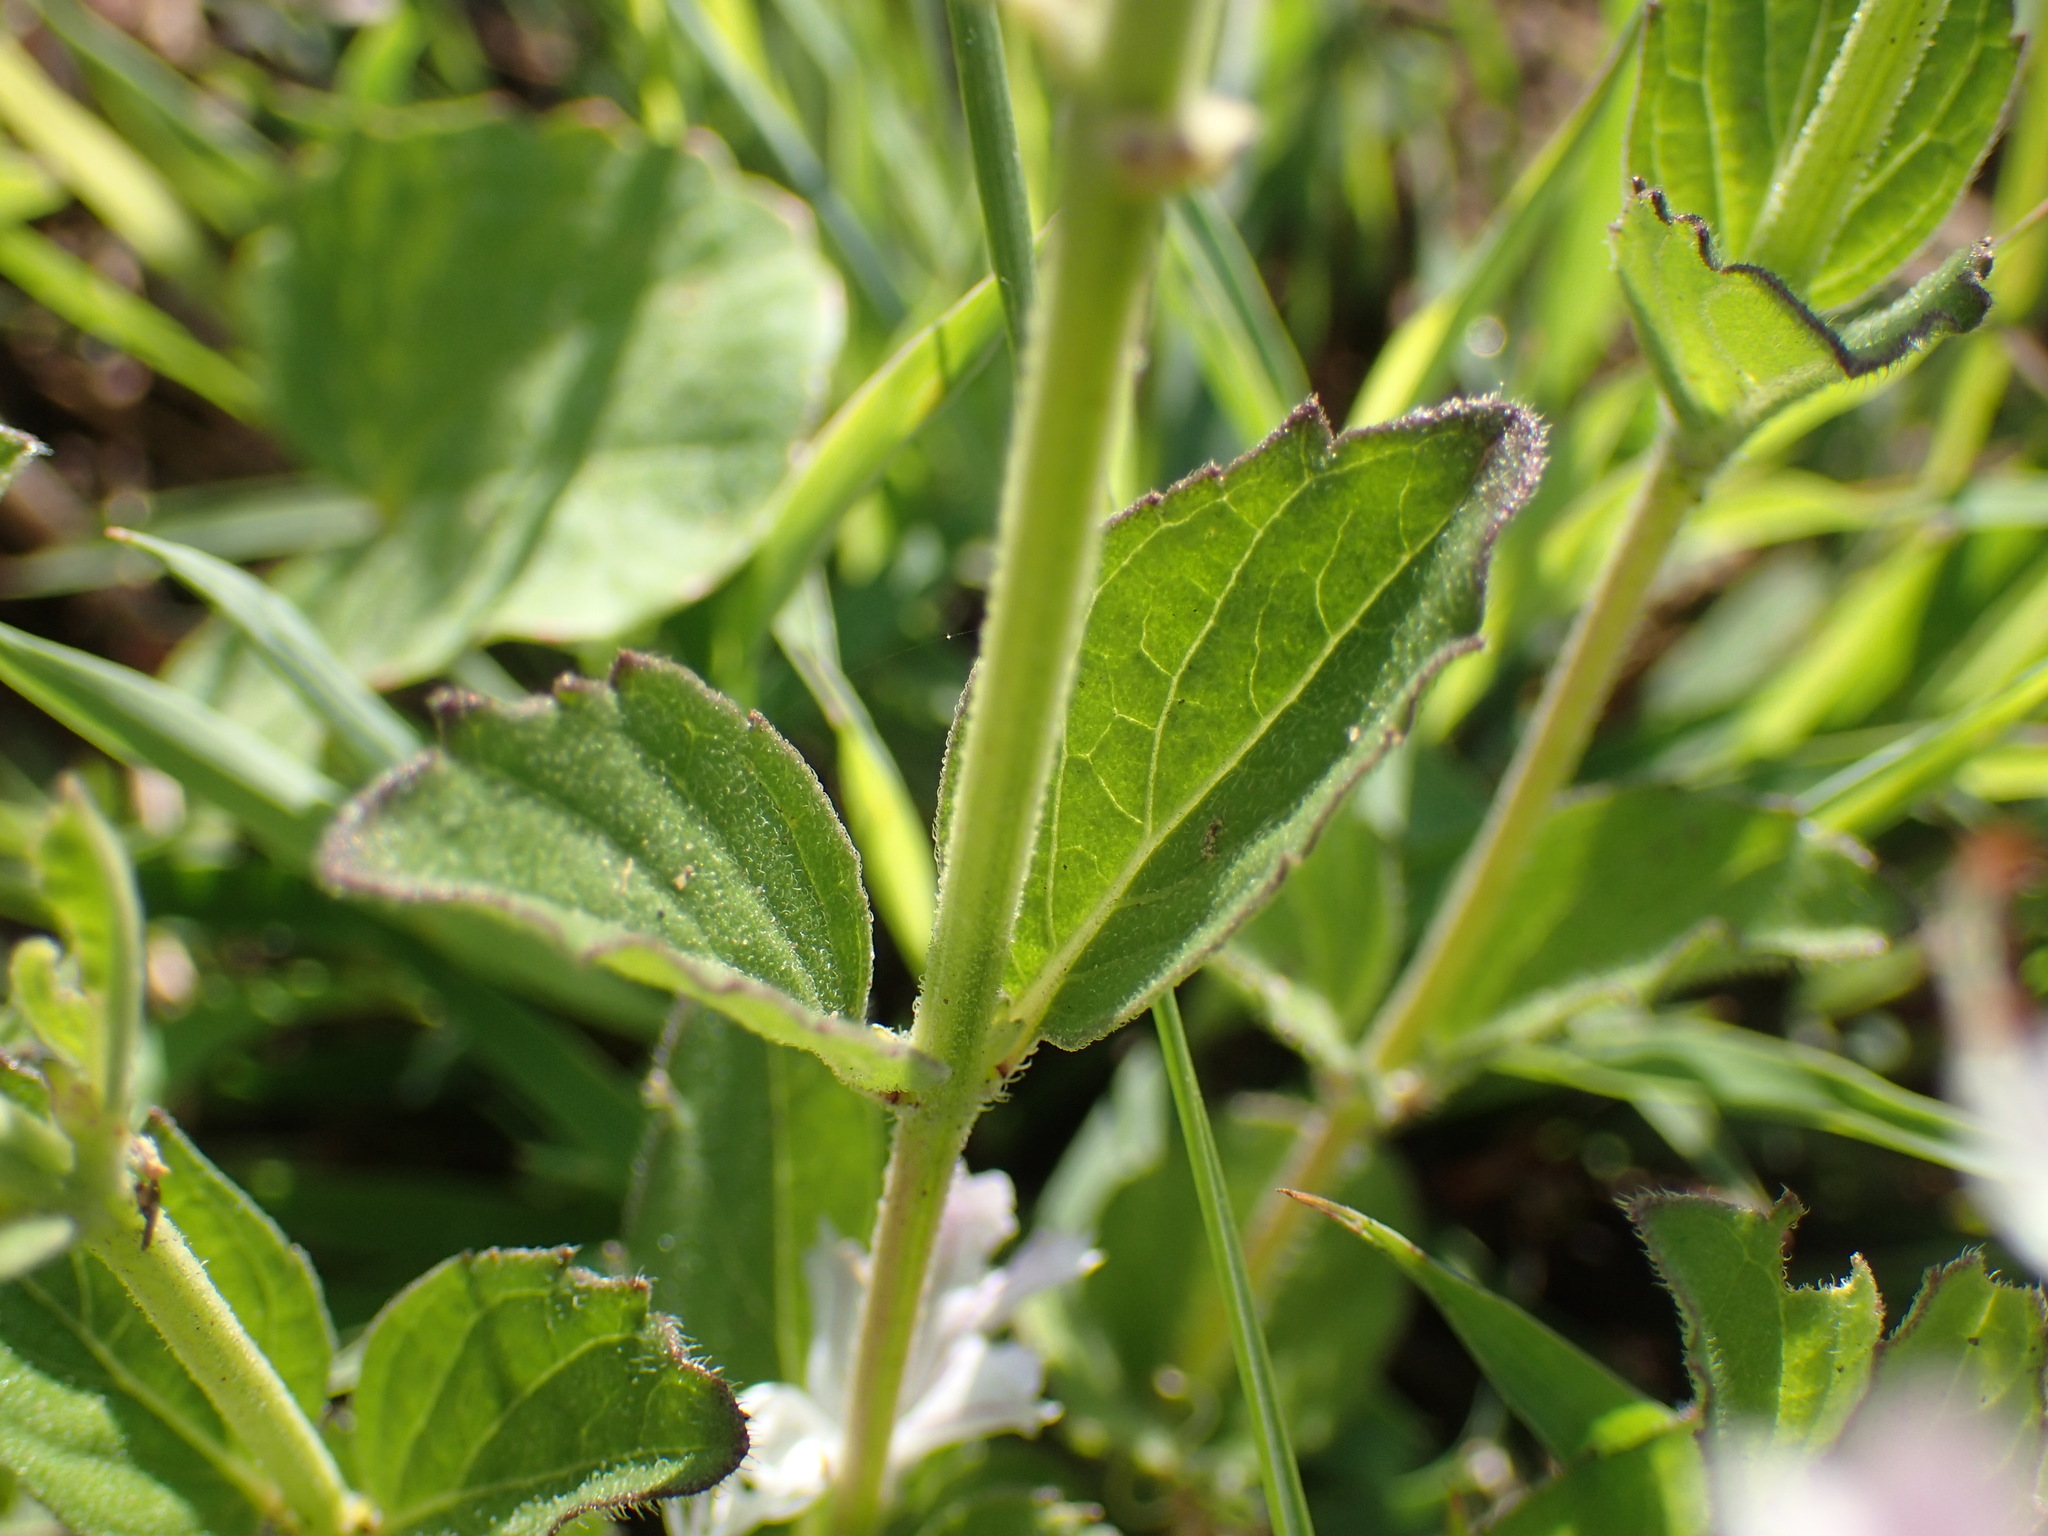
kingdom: Plantae
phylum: Tracheophyta
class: Magnoliopsida
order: Lamiales
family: Lamiaceae
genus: Ocimum
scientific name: Ocimum obovatum
